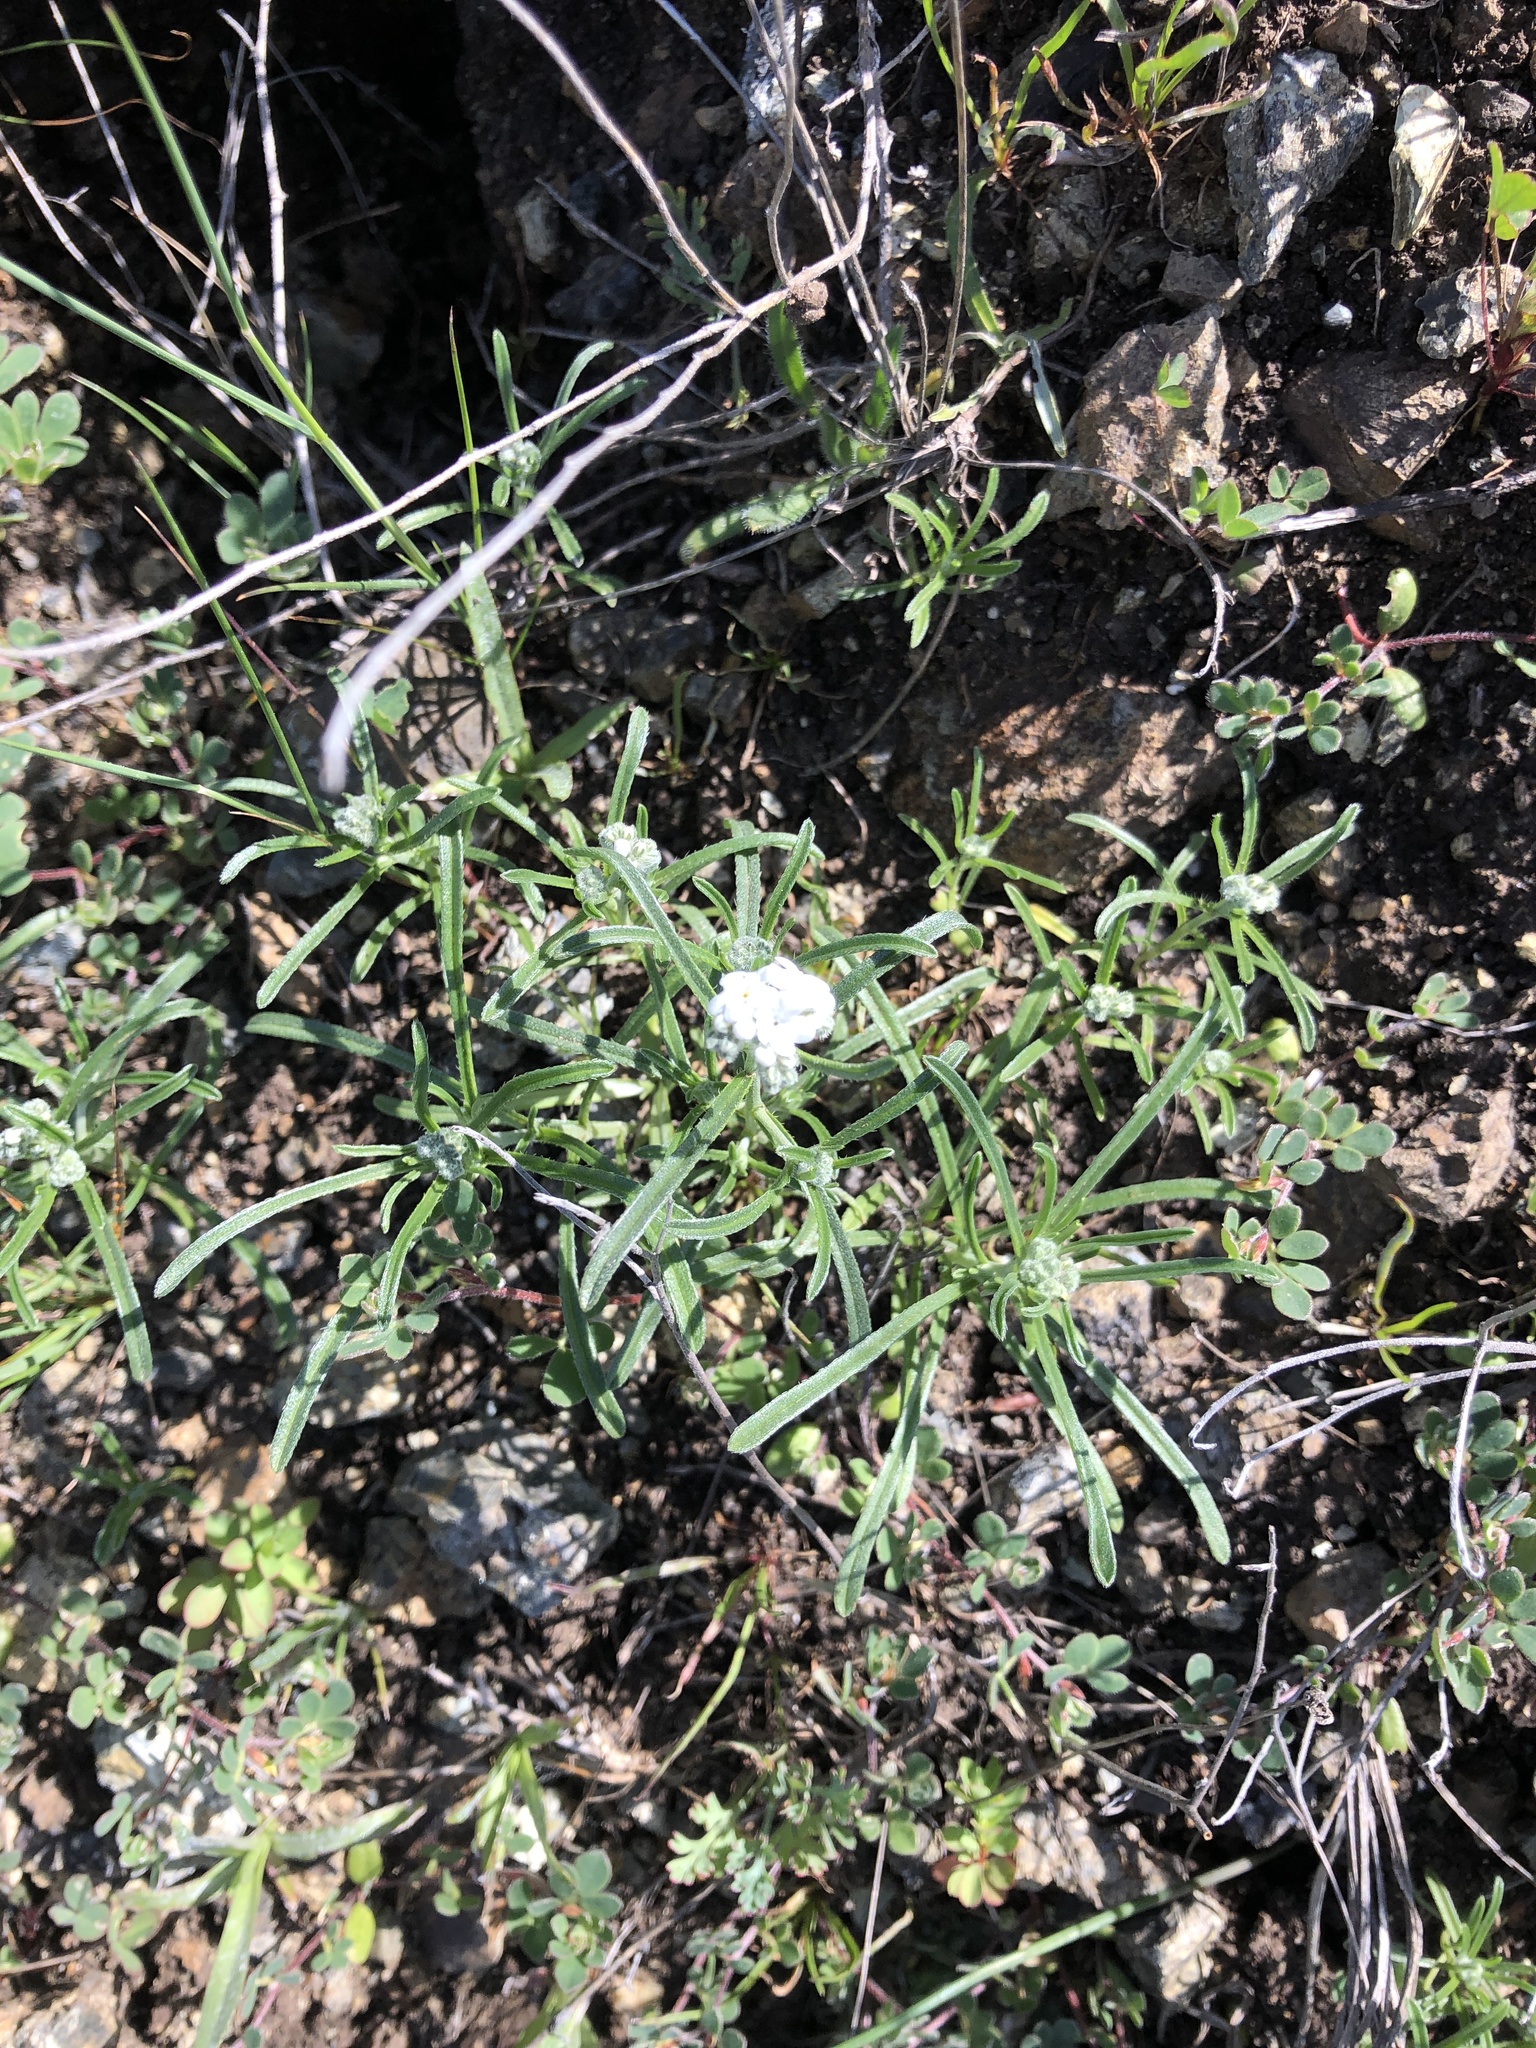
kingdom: Plantae
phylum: Tracheophyta
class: Magnoliopsida
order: Boraginales
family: Boraginaceae
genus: Cryptantha
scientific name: Cryptantha flaccida
